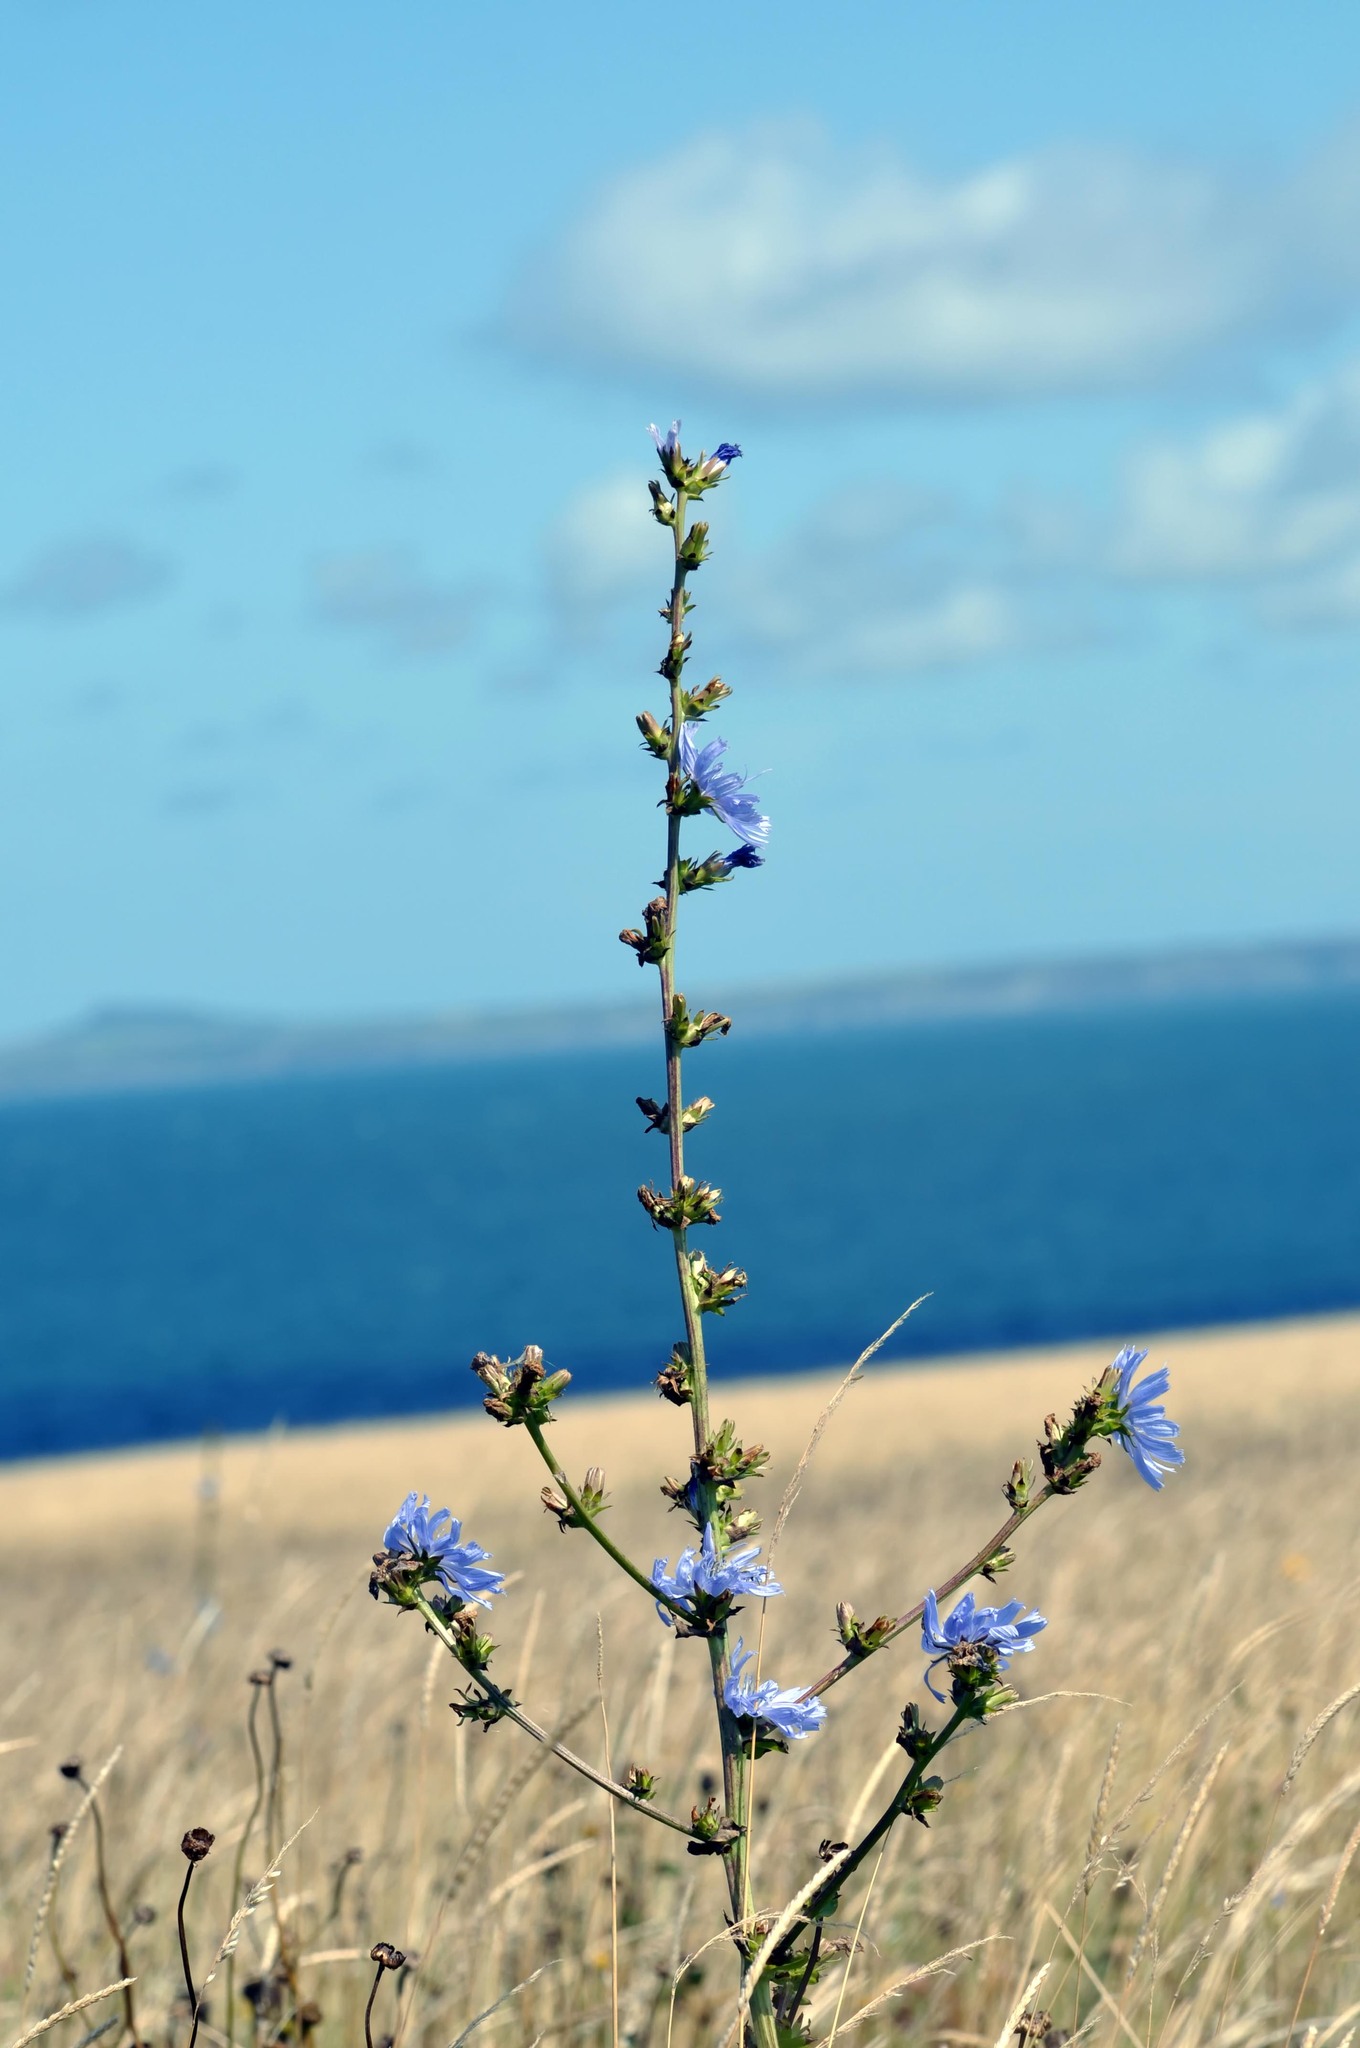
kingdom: Plantae
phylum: Tracheophyta
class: Magnoliopsida
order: Asterales
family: Asteraceae
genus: Cichorium
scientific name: Cichorium intybus
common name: Chicory
